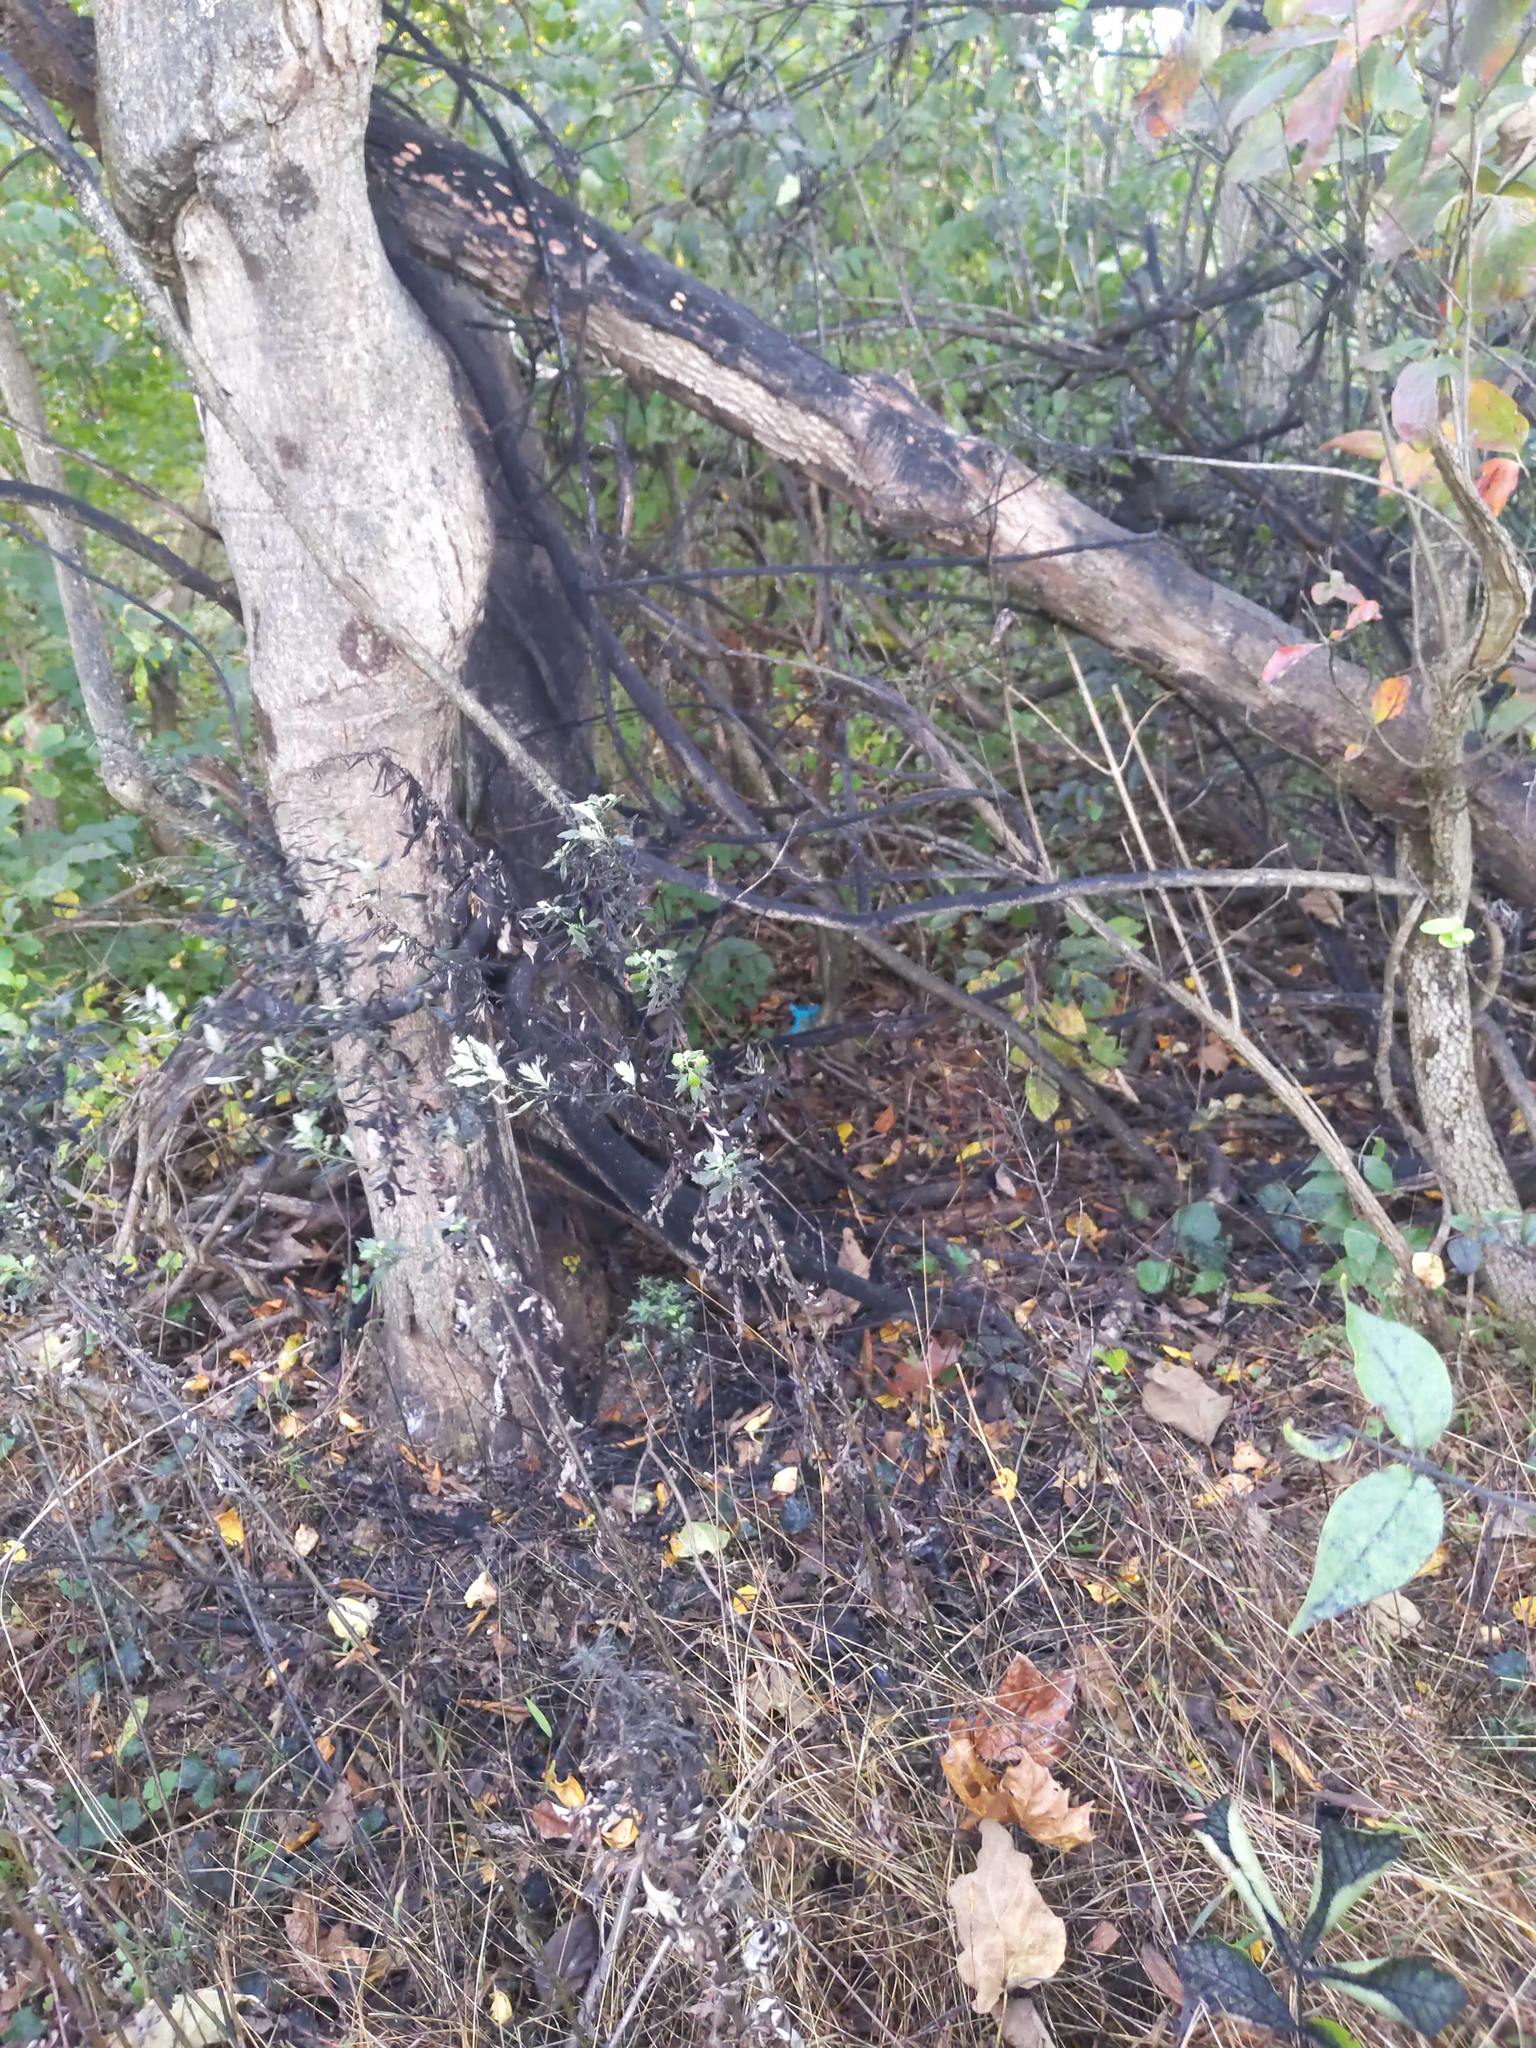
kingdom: Animalia
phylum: Arthropoda
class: Insecta
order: Hemiptera
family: Fulgoridae
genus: Lycorma
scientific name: Lycorma delicatula
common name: Spotted lanternfly
